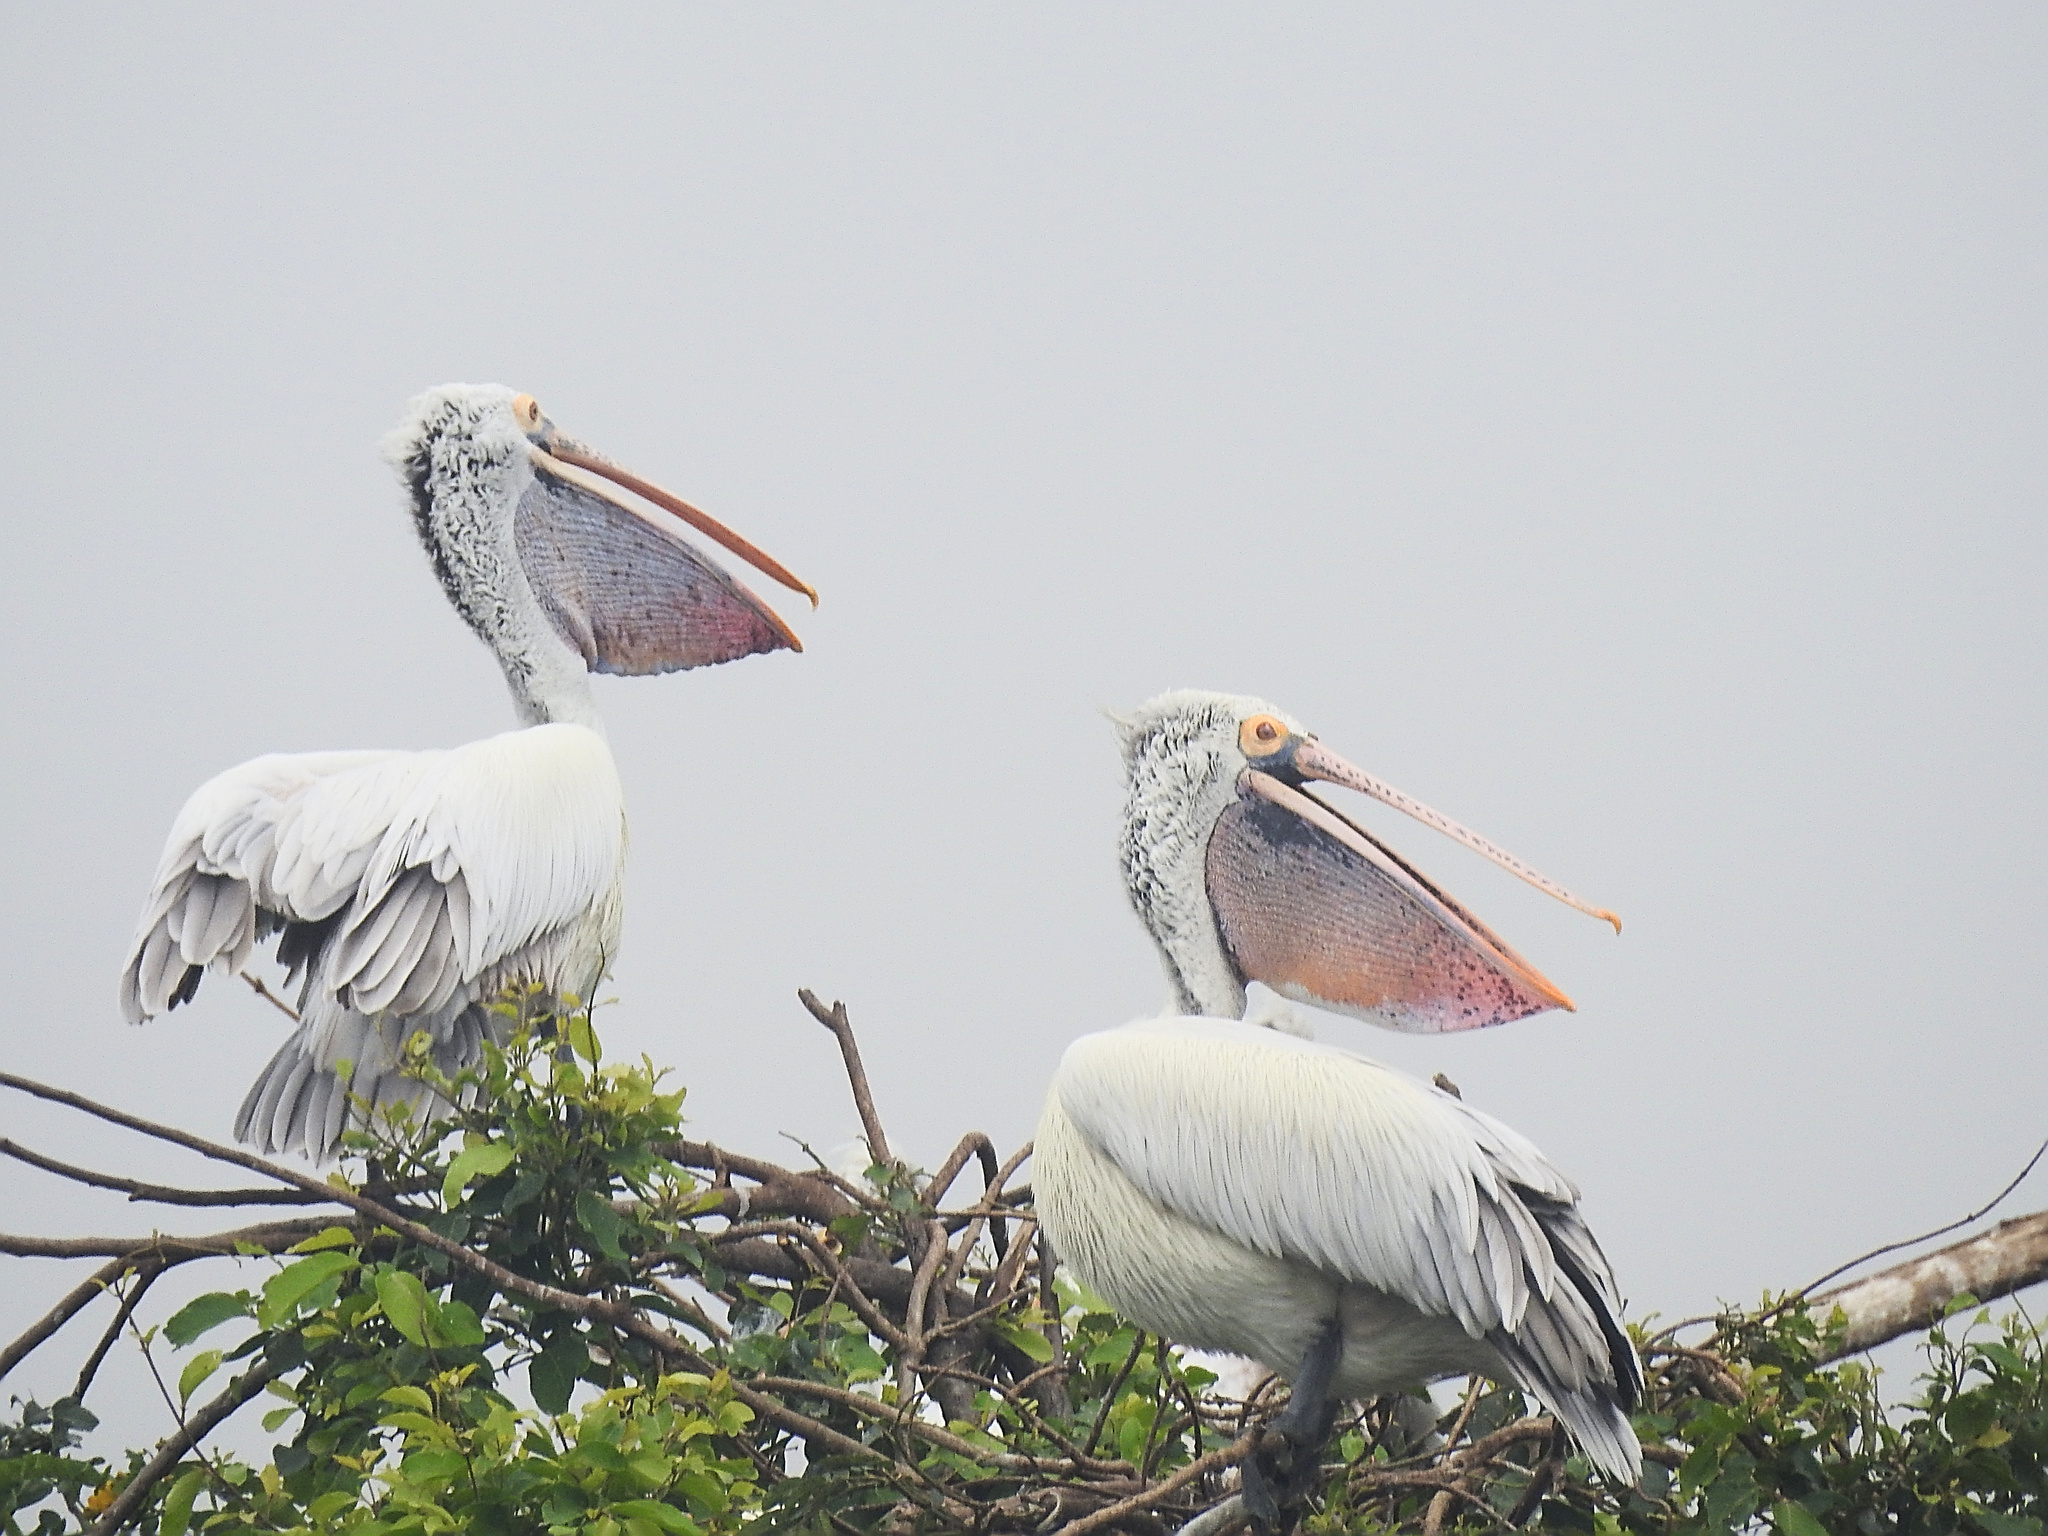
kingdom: Animalia
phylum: Chordata
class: Aves
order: Pelecaniformes
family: Pelecanidae
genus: Pelecanus
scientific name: Pelecanus philippensis
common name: Spot-billed pelican
